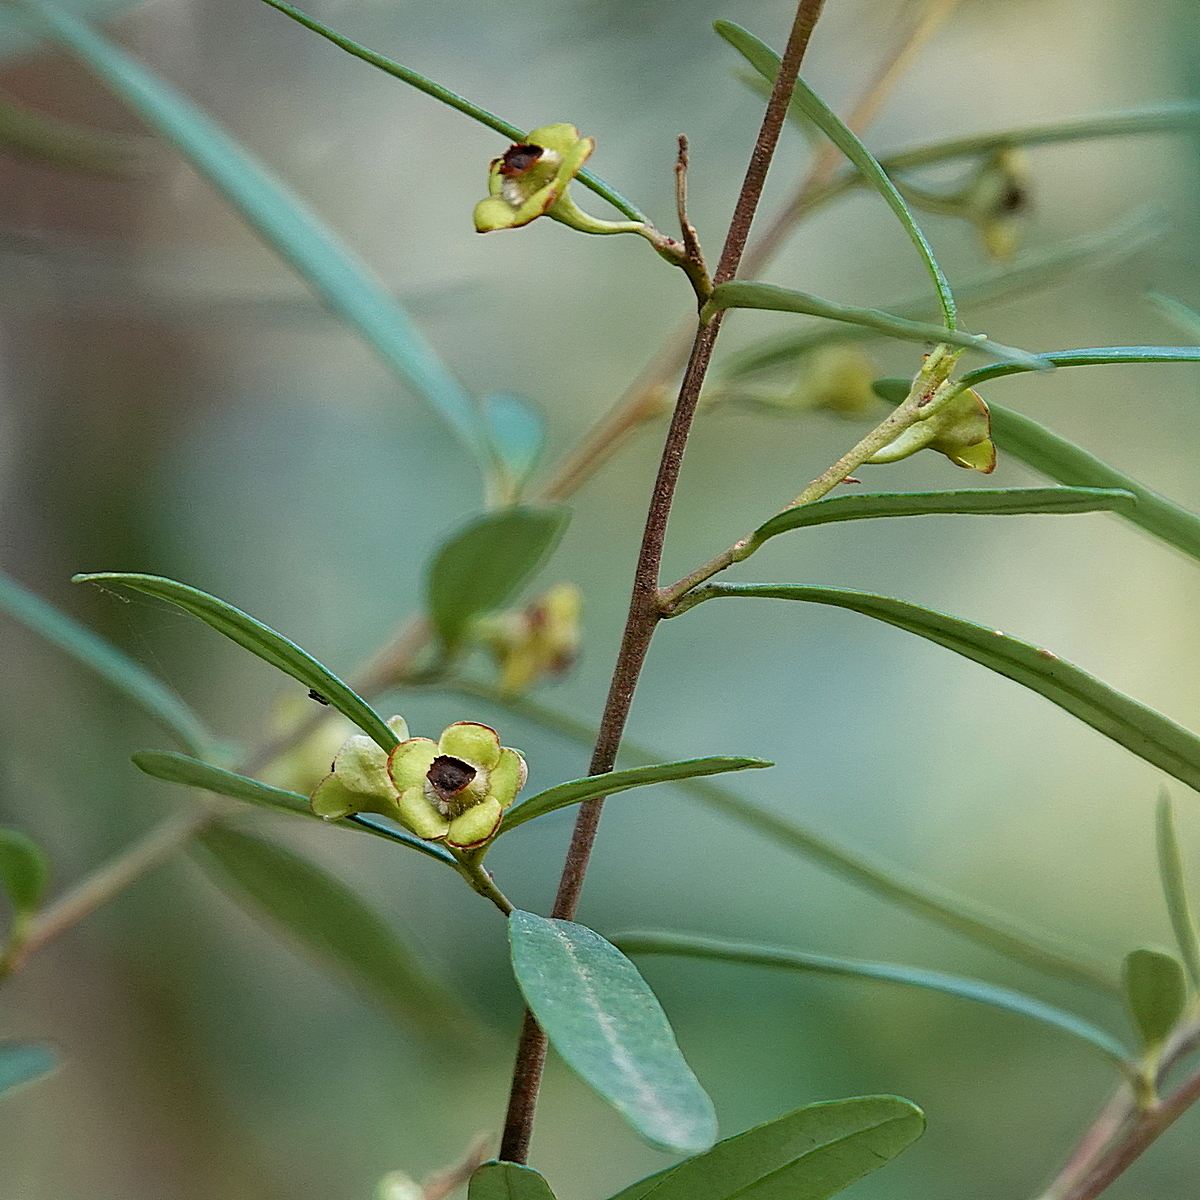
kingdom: Plantae
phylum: Tracheophyta
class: Magnoliopsida
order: Malpighiales
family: Euphorbiaceae
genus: Beyeria
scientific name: Beyeria lasiocarpa
